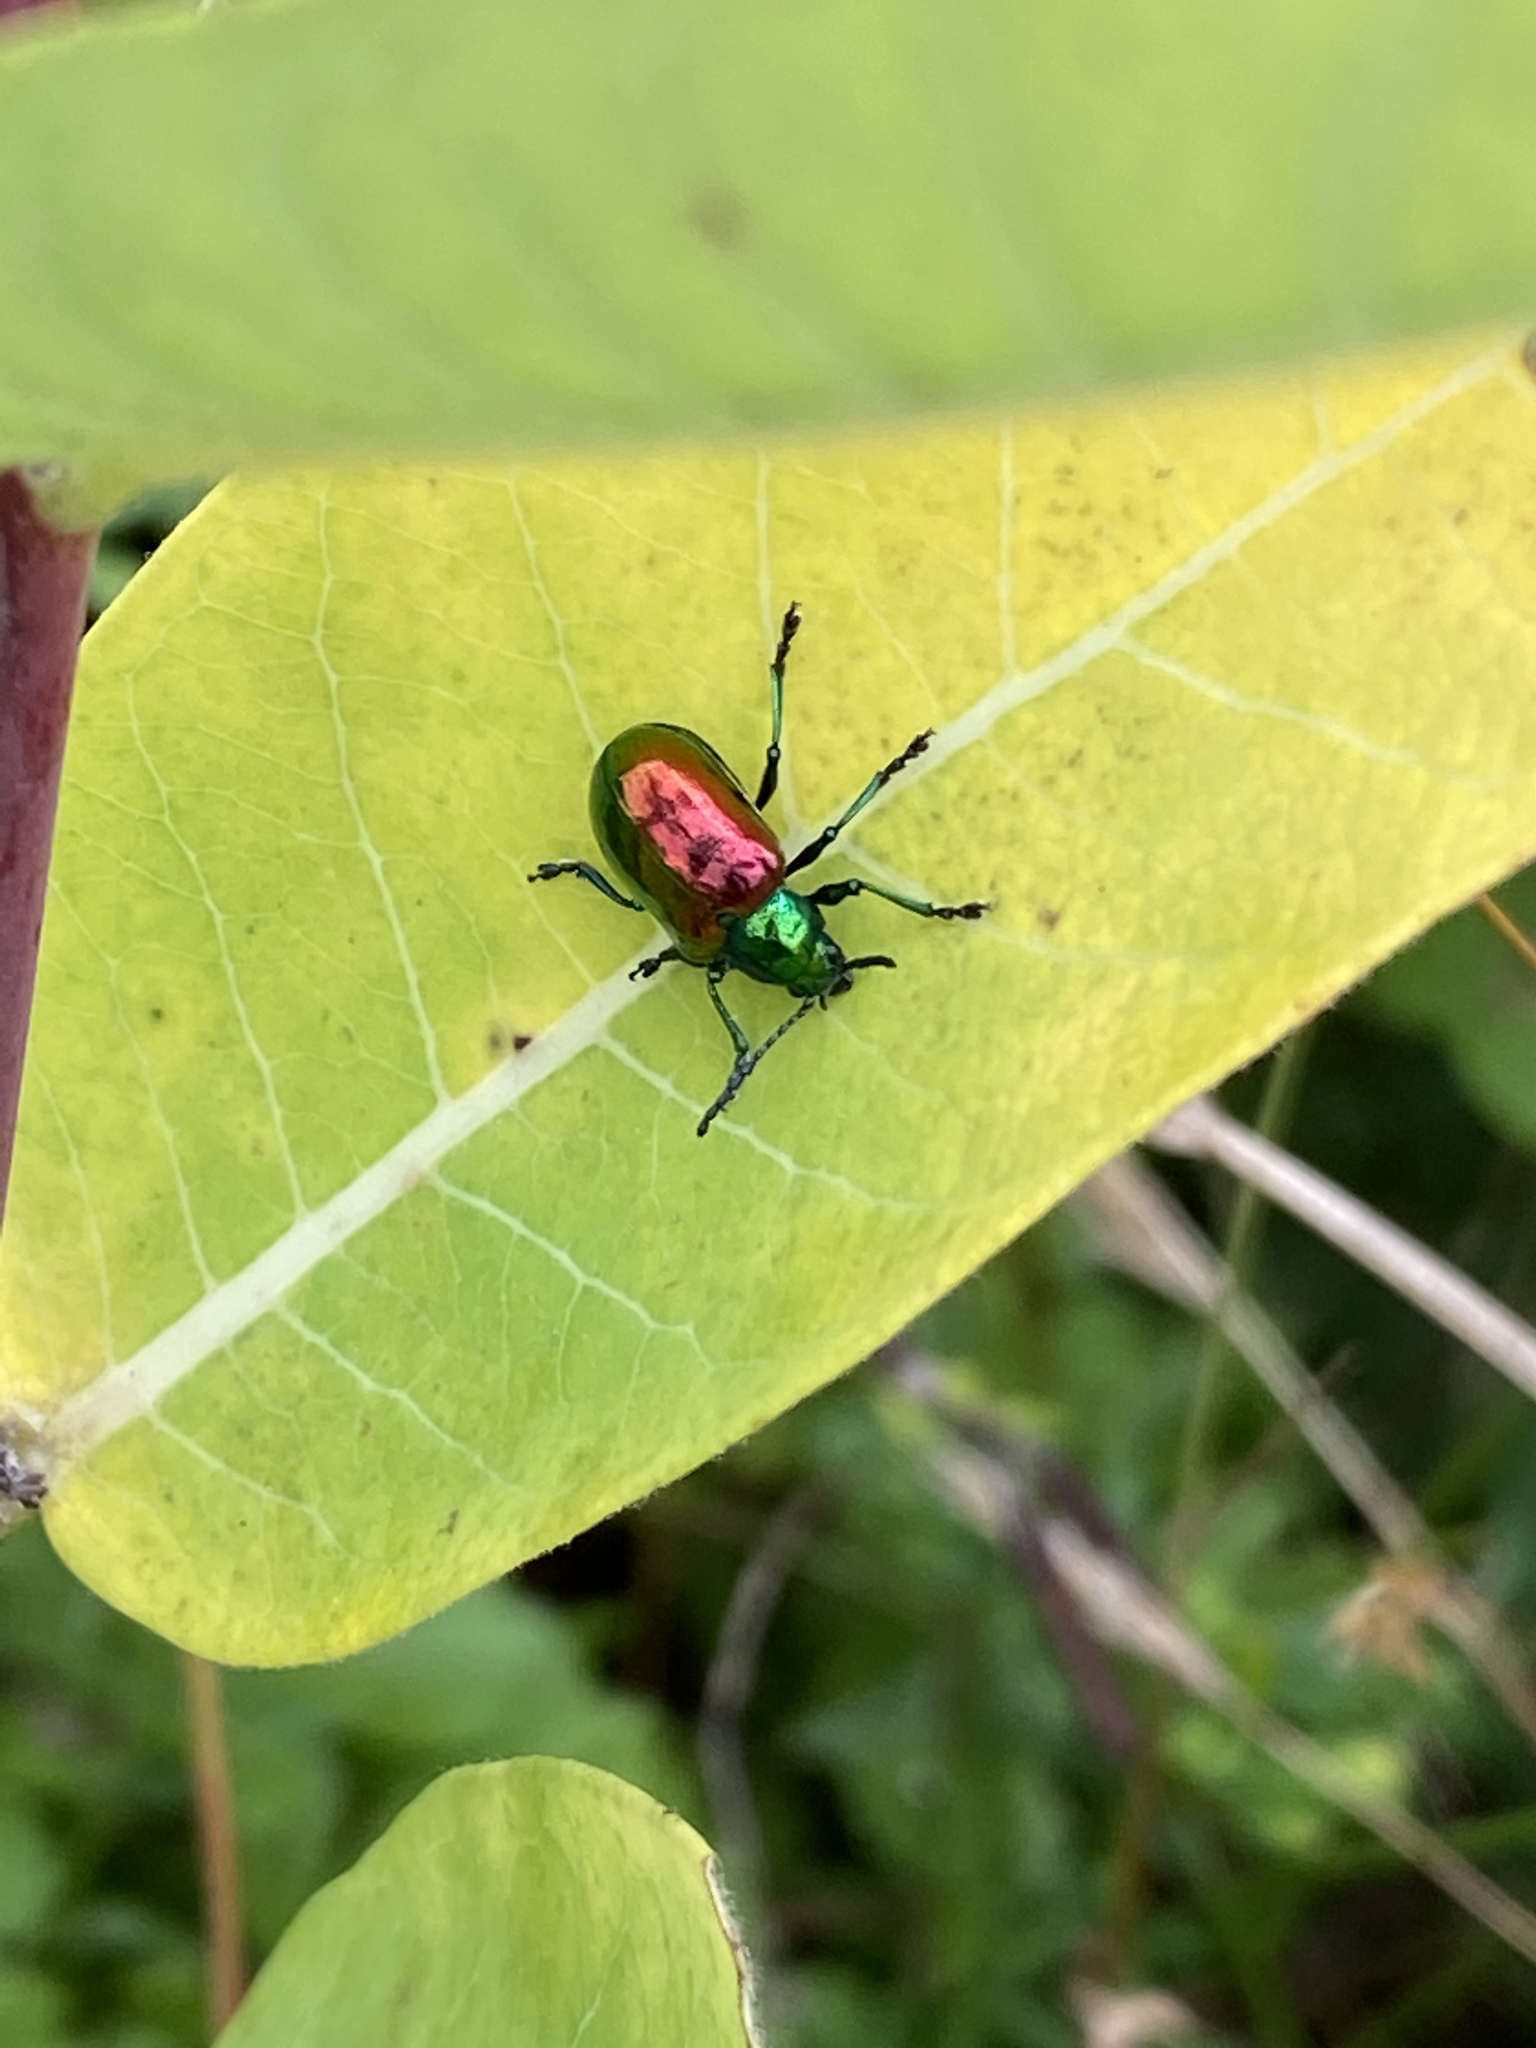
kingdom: Animalia
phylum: Arthropoda
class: Insecta
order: Coleoptera
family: Chrysomelidae
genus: Chrysochus
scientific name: Chrysochus auratus
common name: Dogbane leaf beetle
